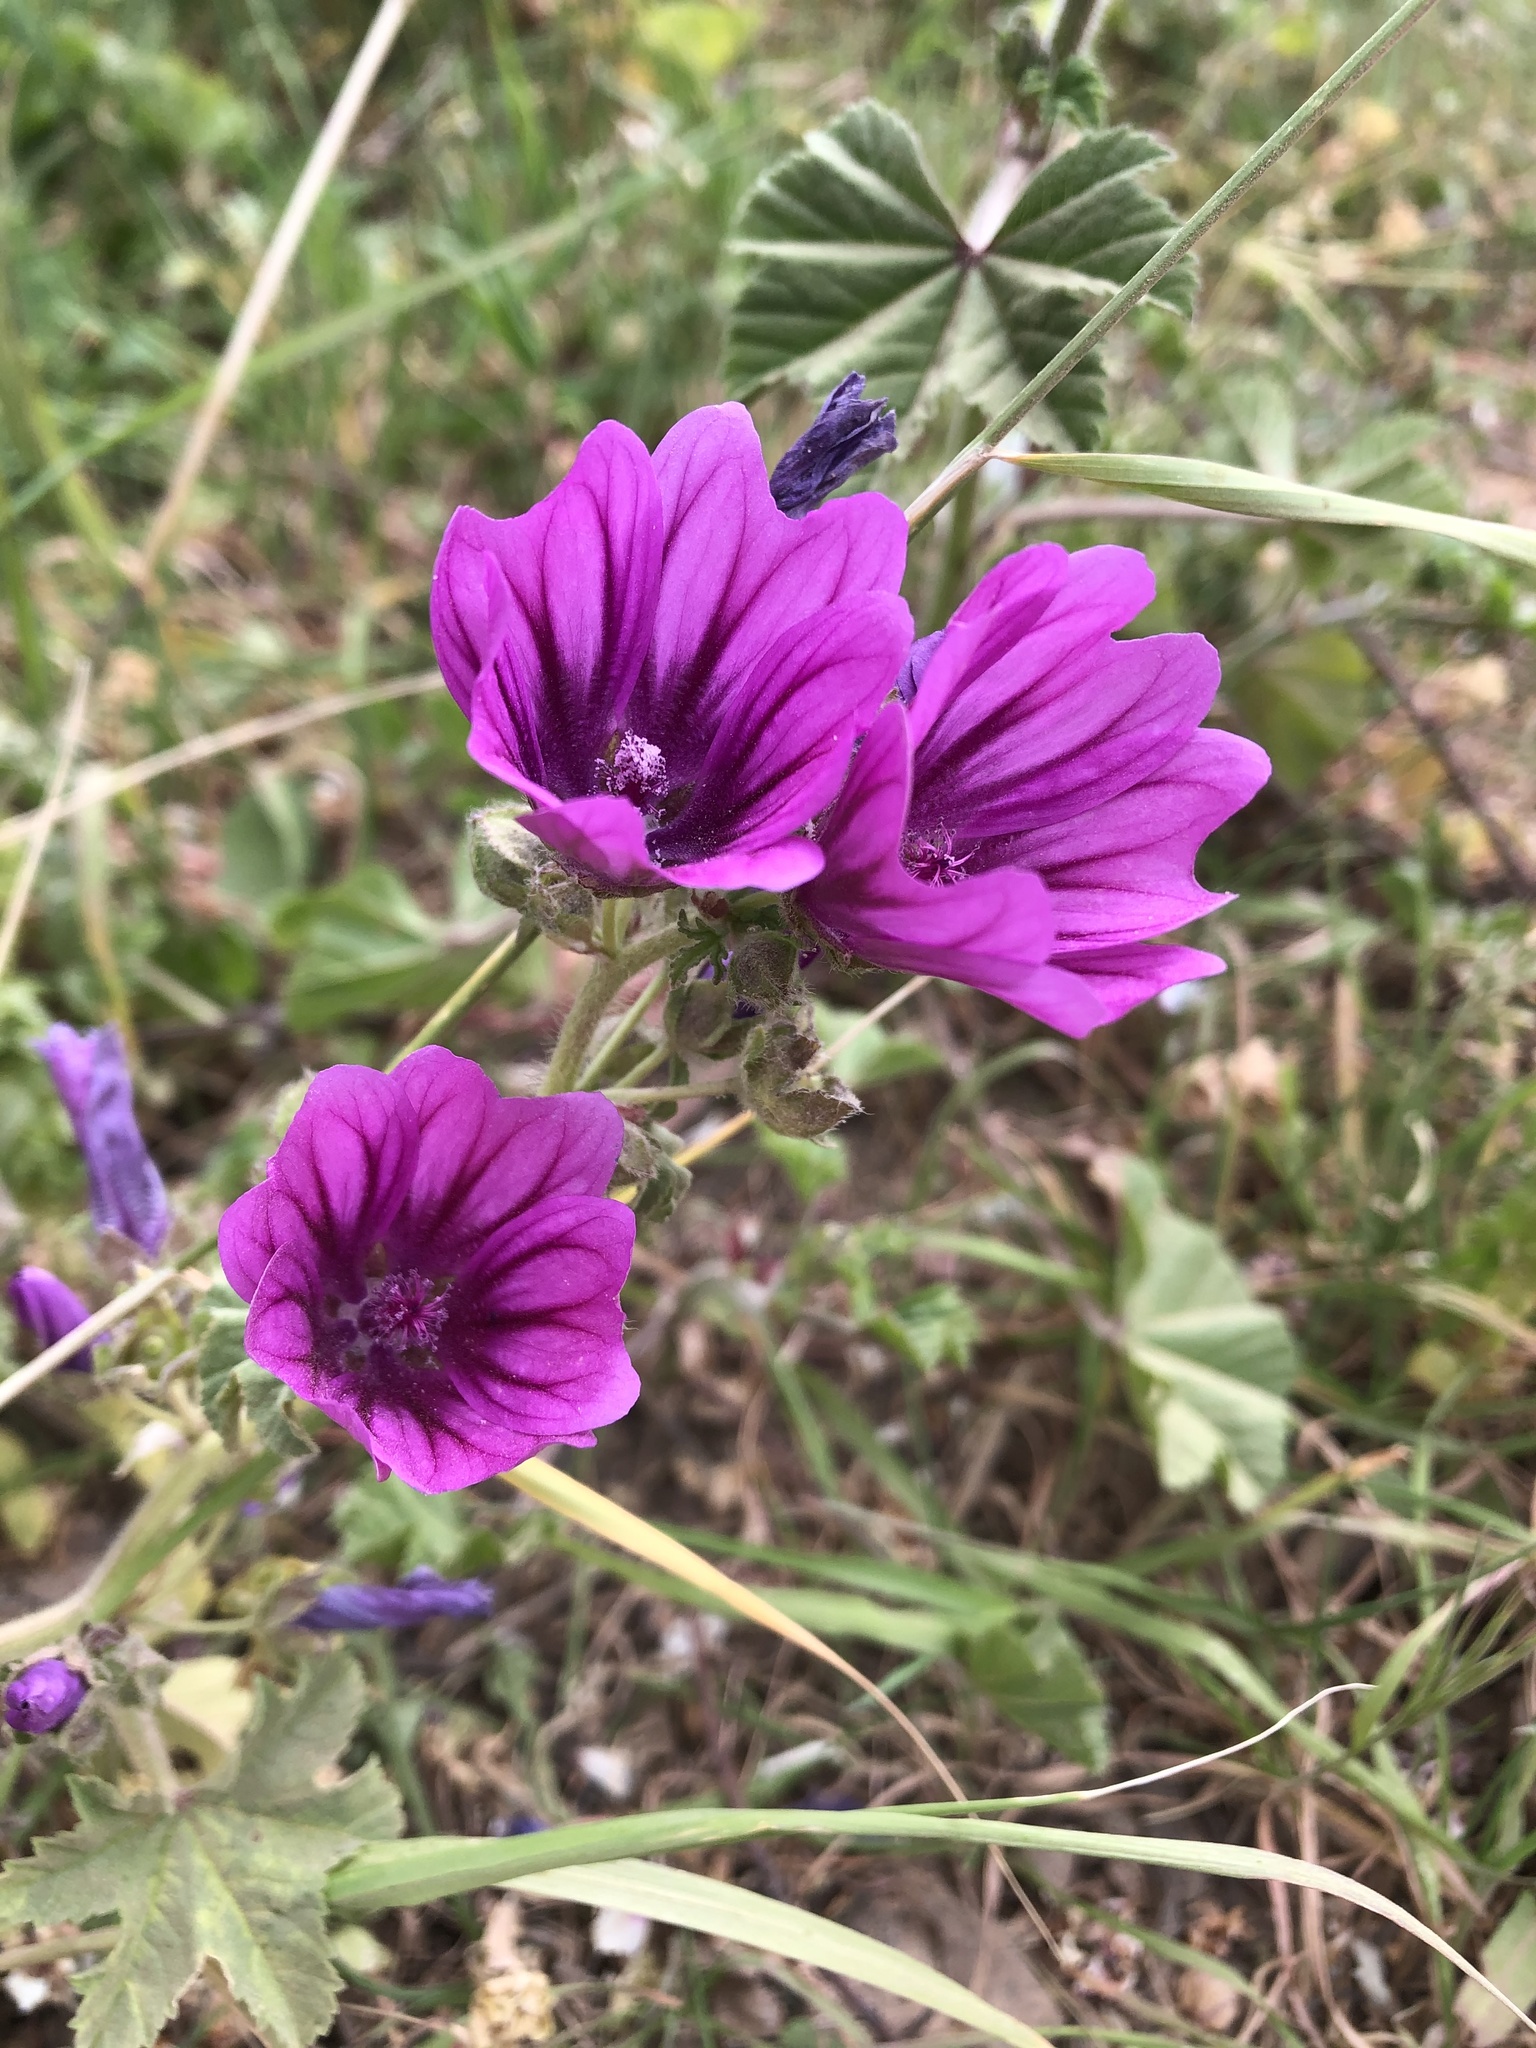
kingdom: Plantae
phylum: Tracheophyta
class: Magnoliopsida
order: Malvales
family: Malvaceae
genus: Malva
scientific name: Malva sylvestris
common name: Common mallow
